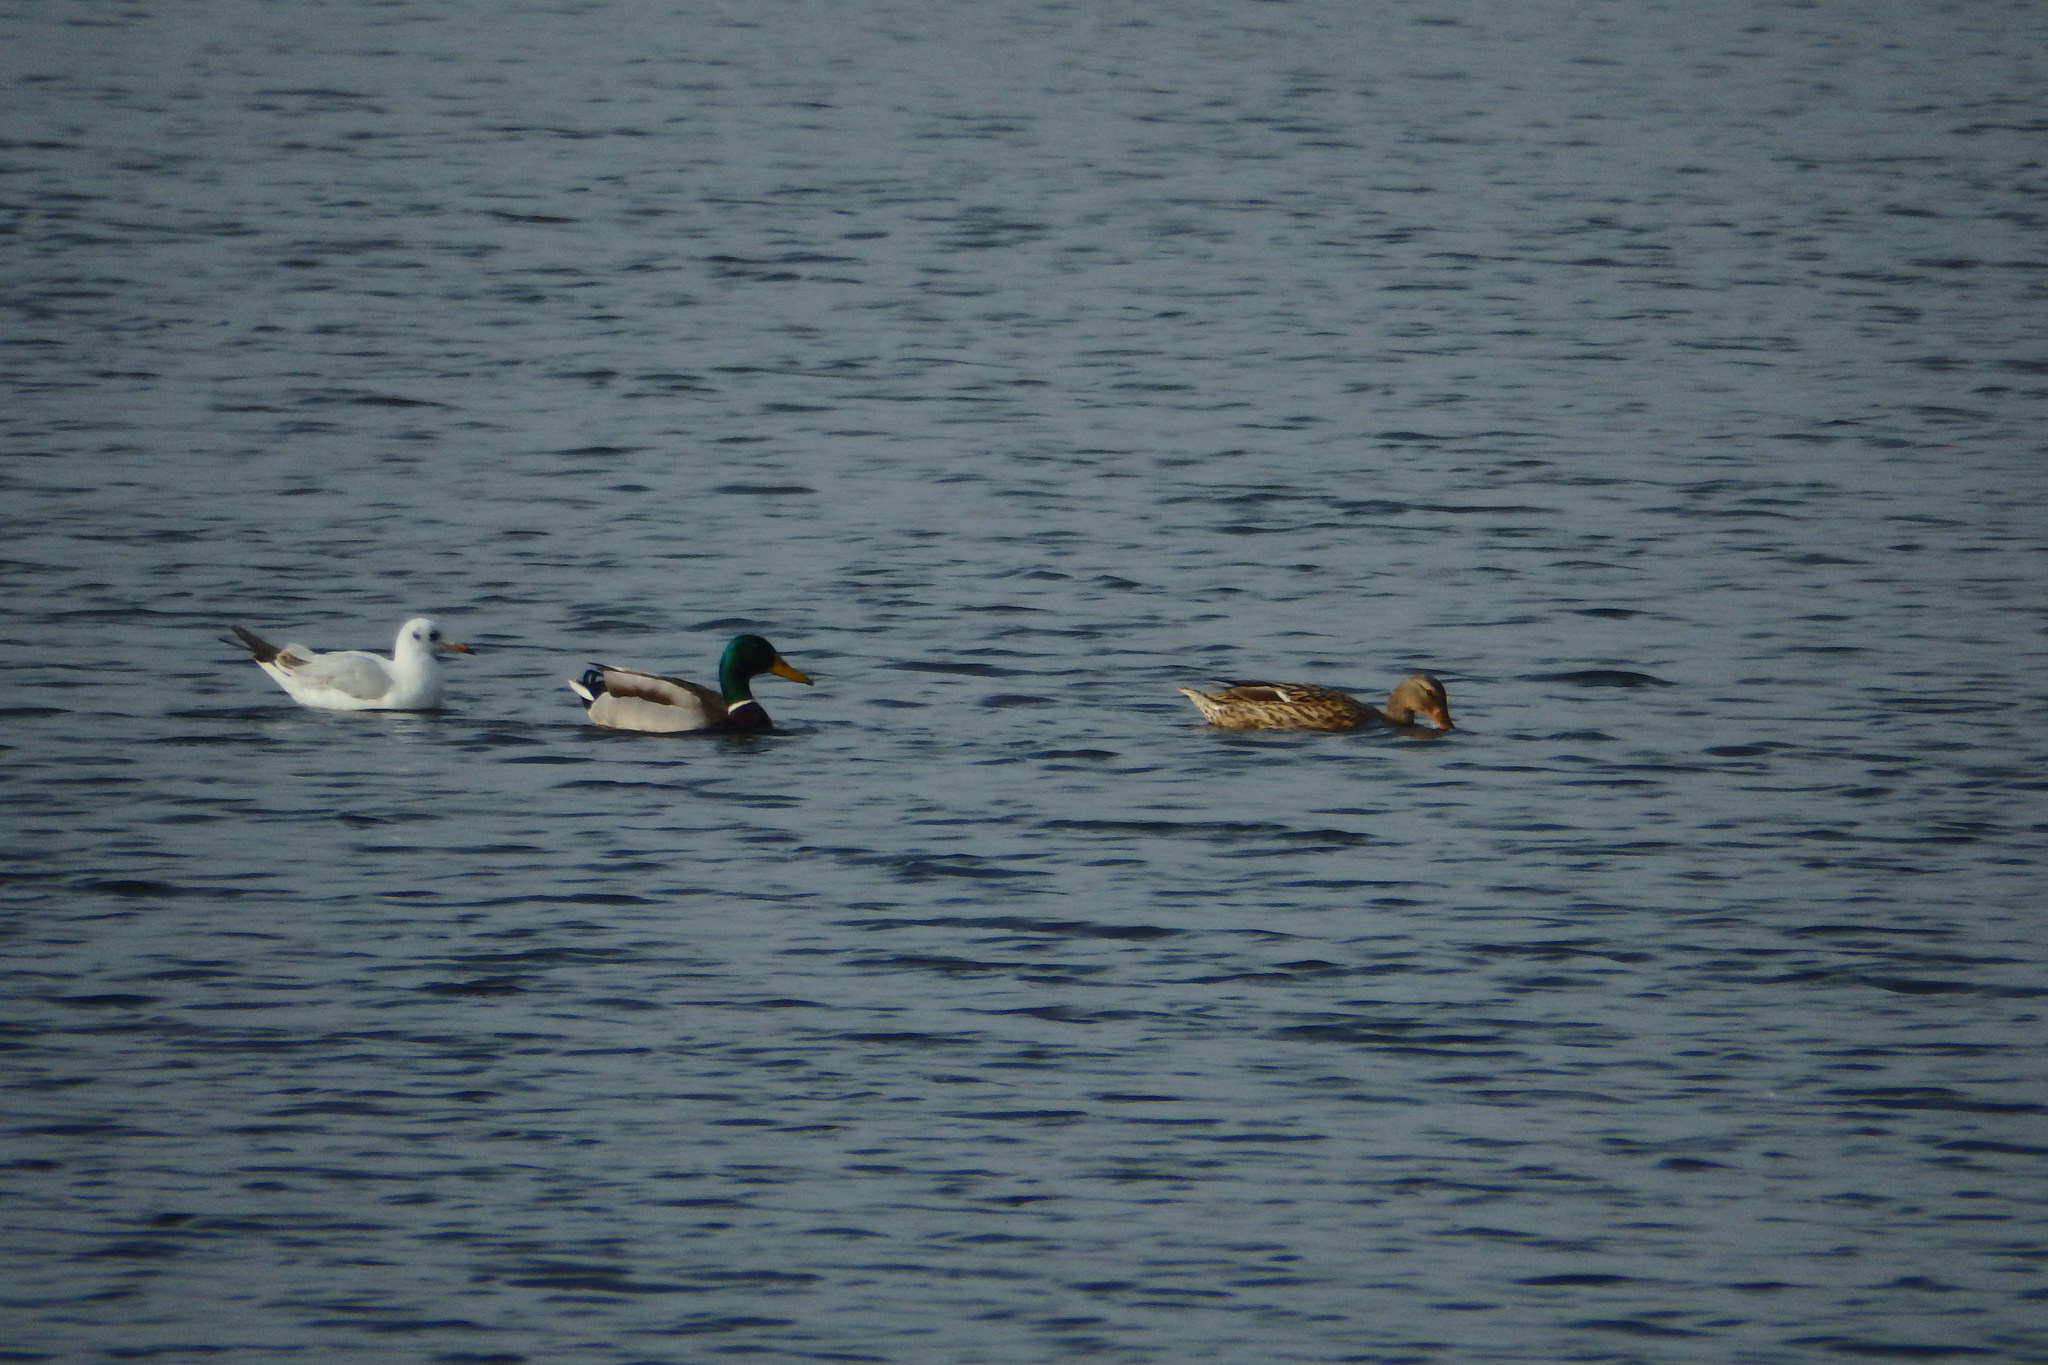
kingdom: Animalia
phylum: Chordata
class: Aves
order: Anseriformes
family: Anatidae
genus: Anas
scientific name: Anas platyrhynchos
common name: Mallard
